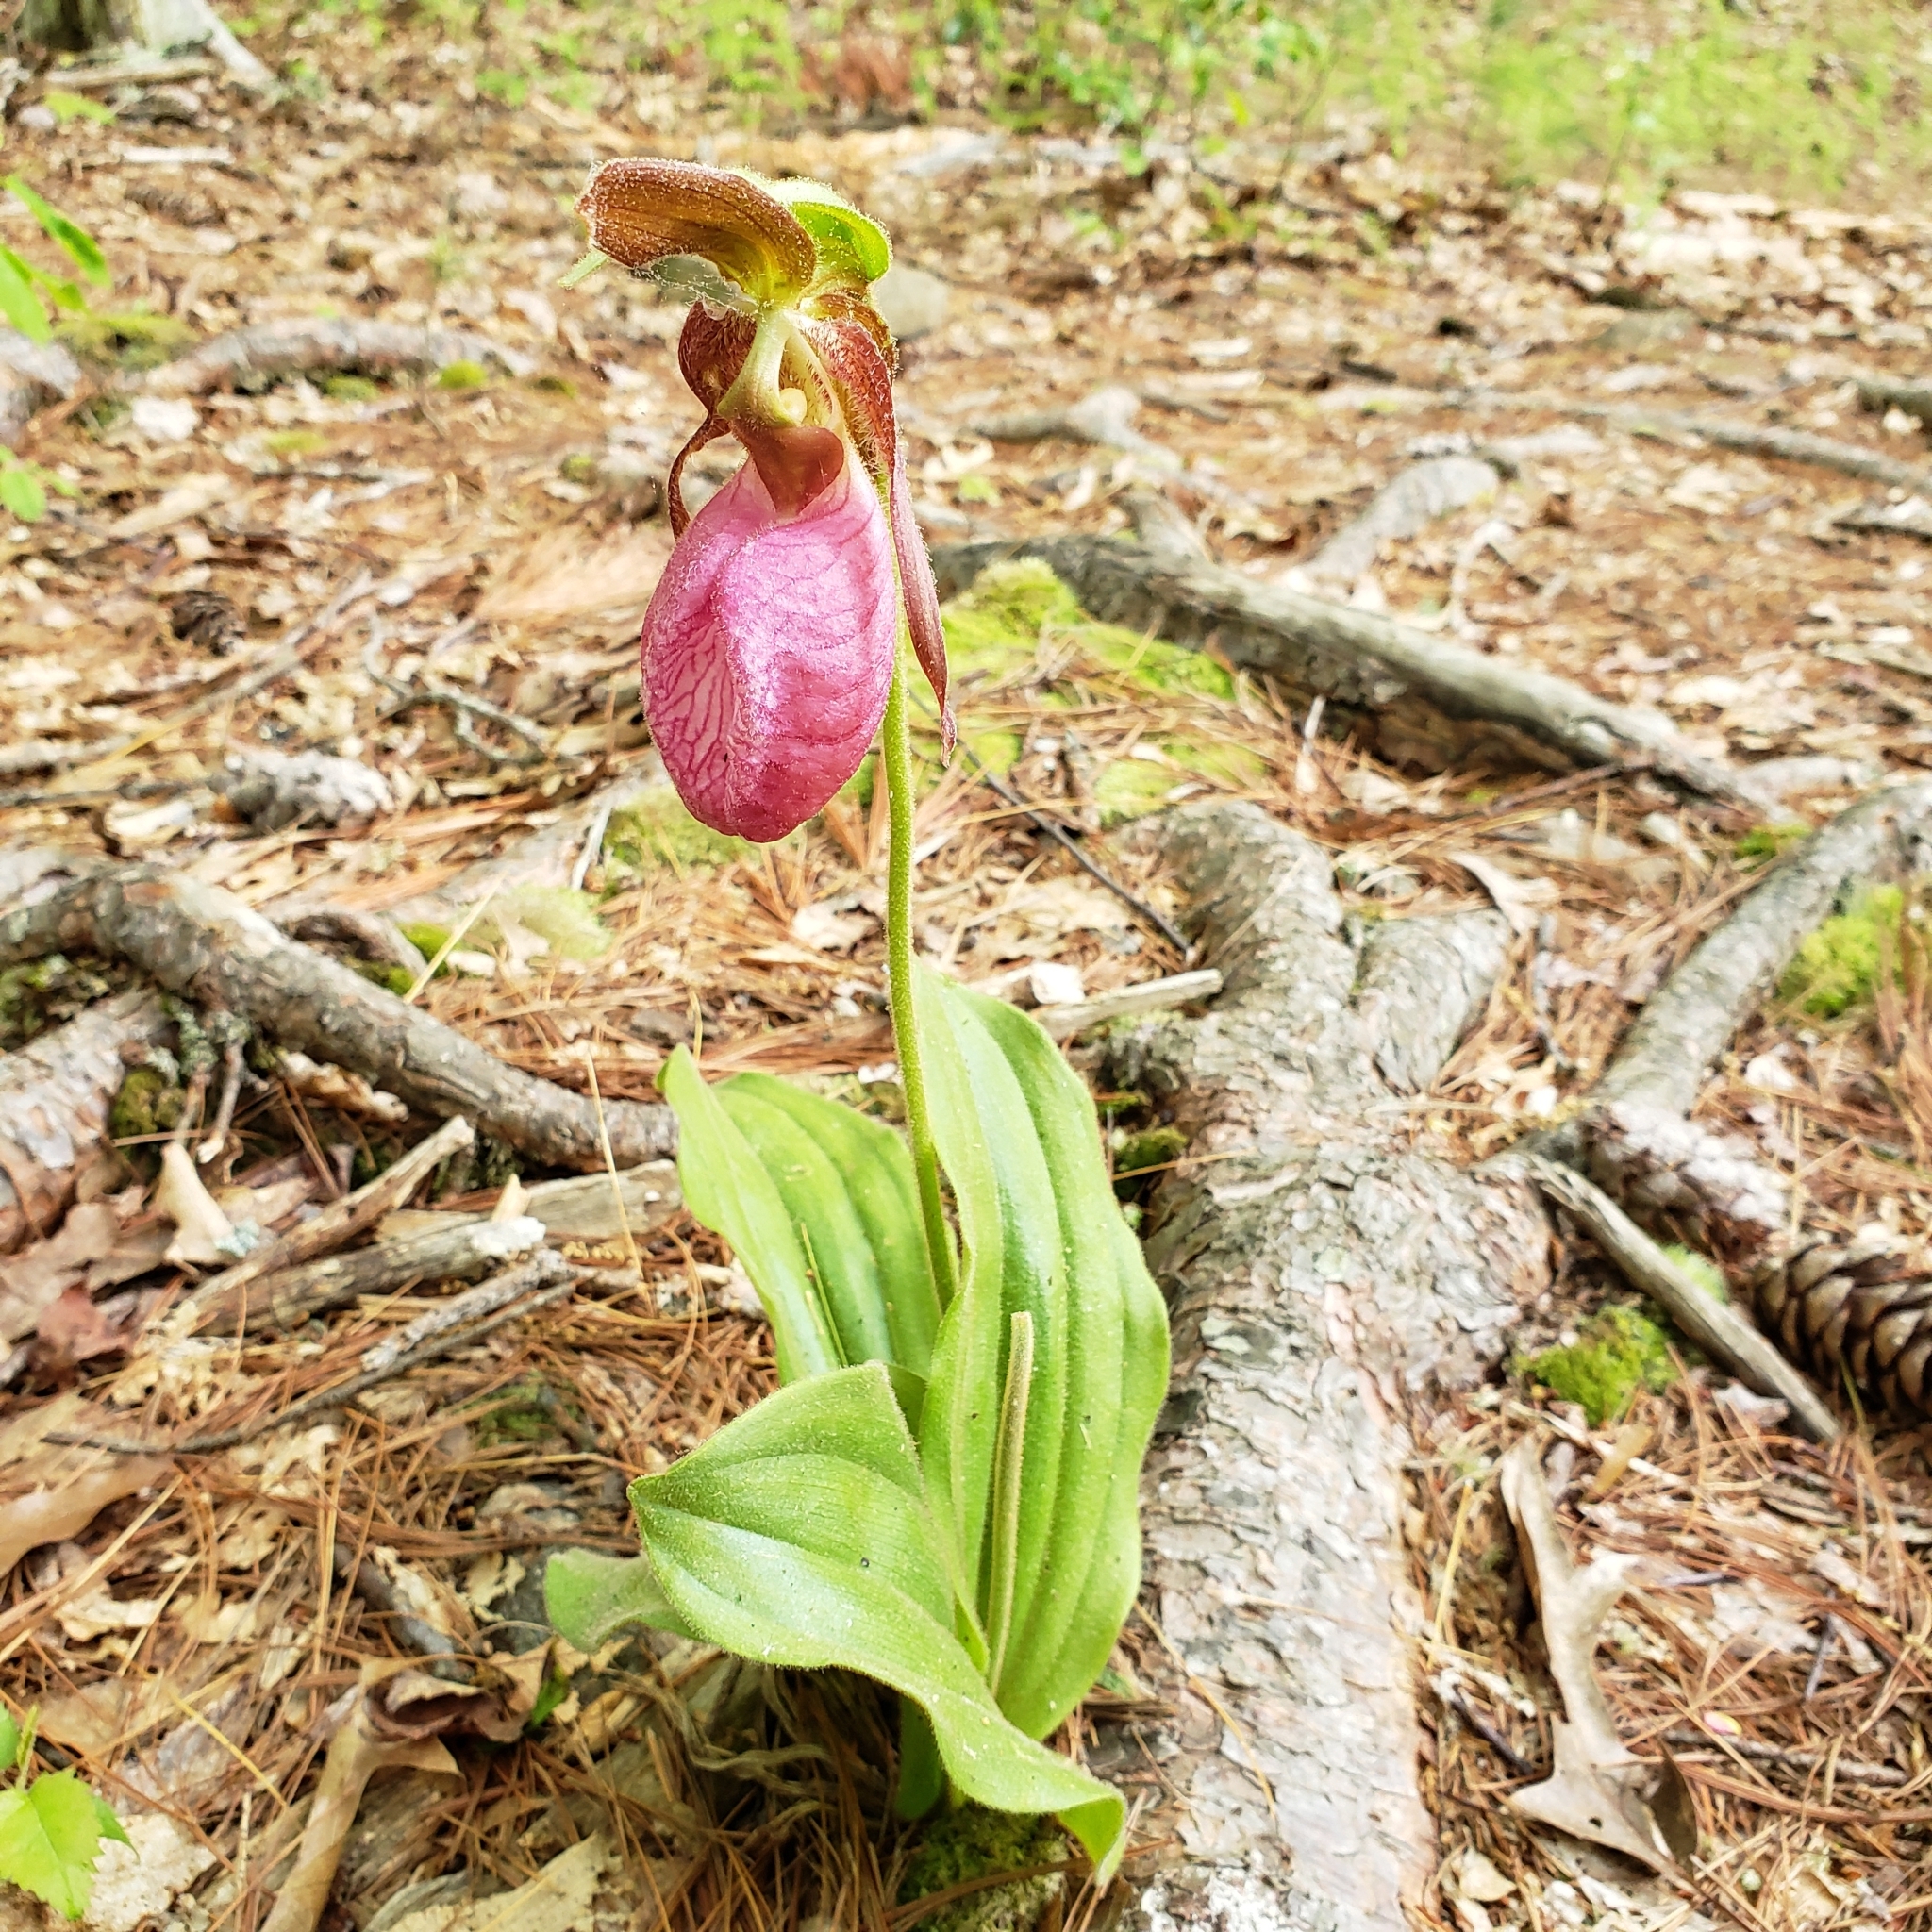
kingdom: Plantae
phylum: Tracheophyta
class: Liliopsida
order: Asparagales
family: Orchidaceae
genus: Cypripedium
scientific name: Cypripedium acaule
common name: Pink lady's-slipper
